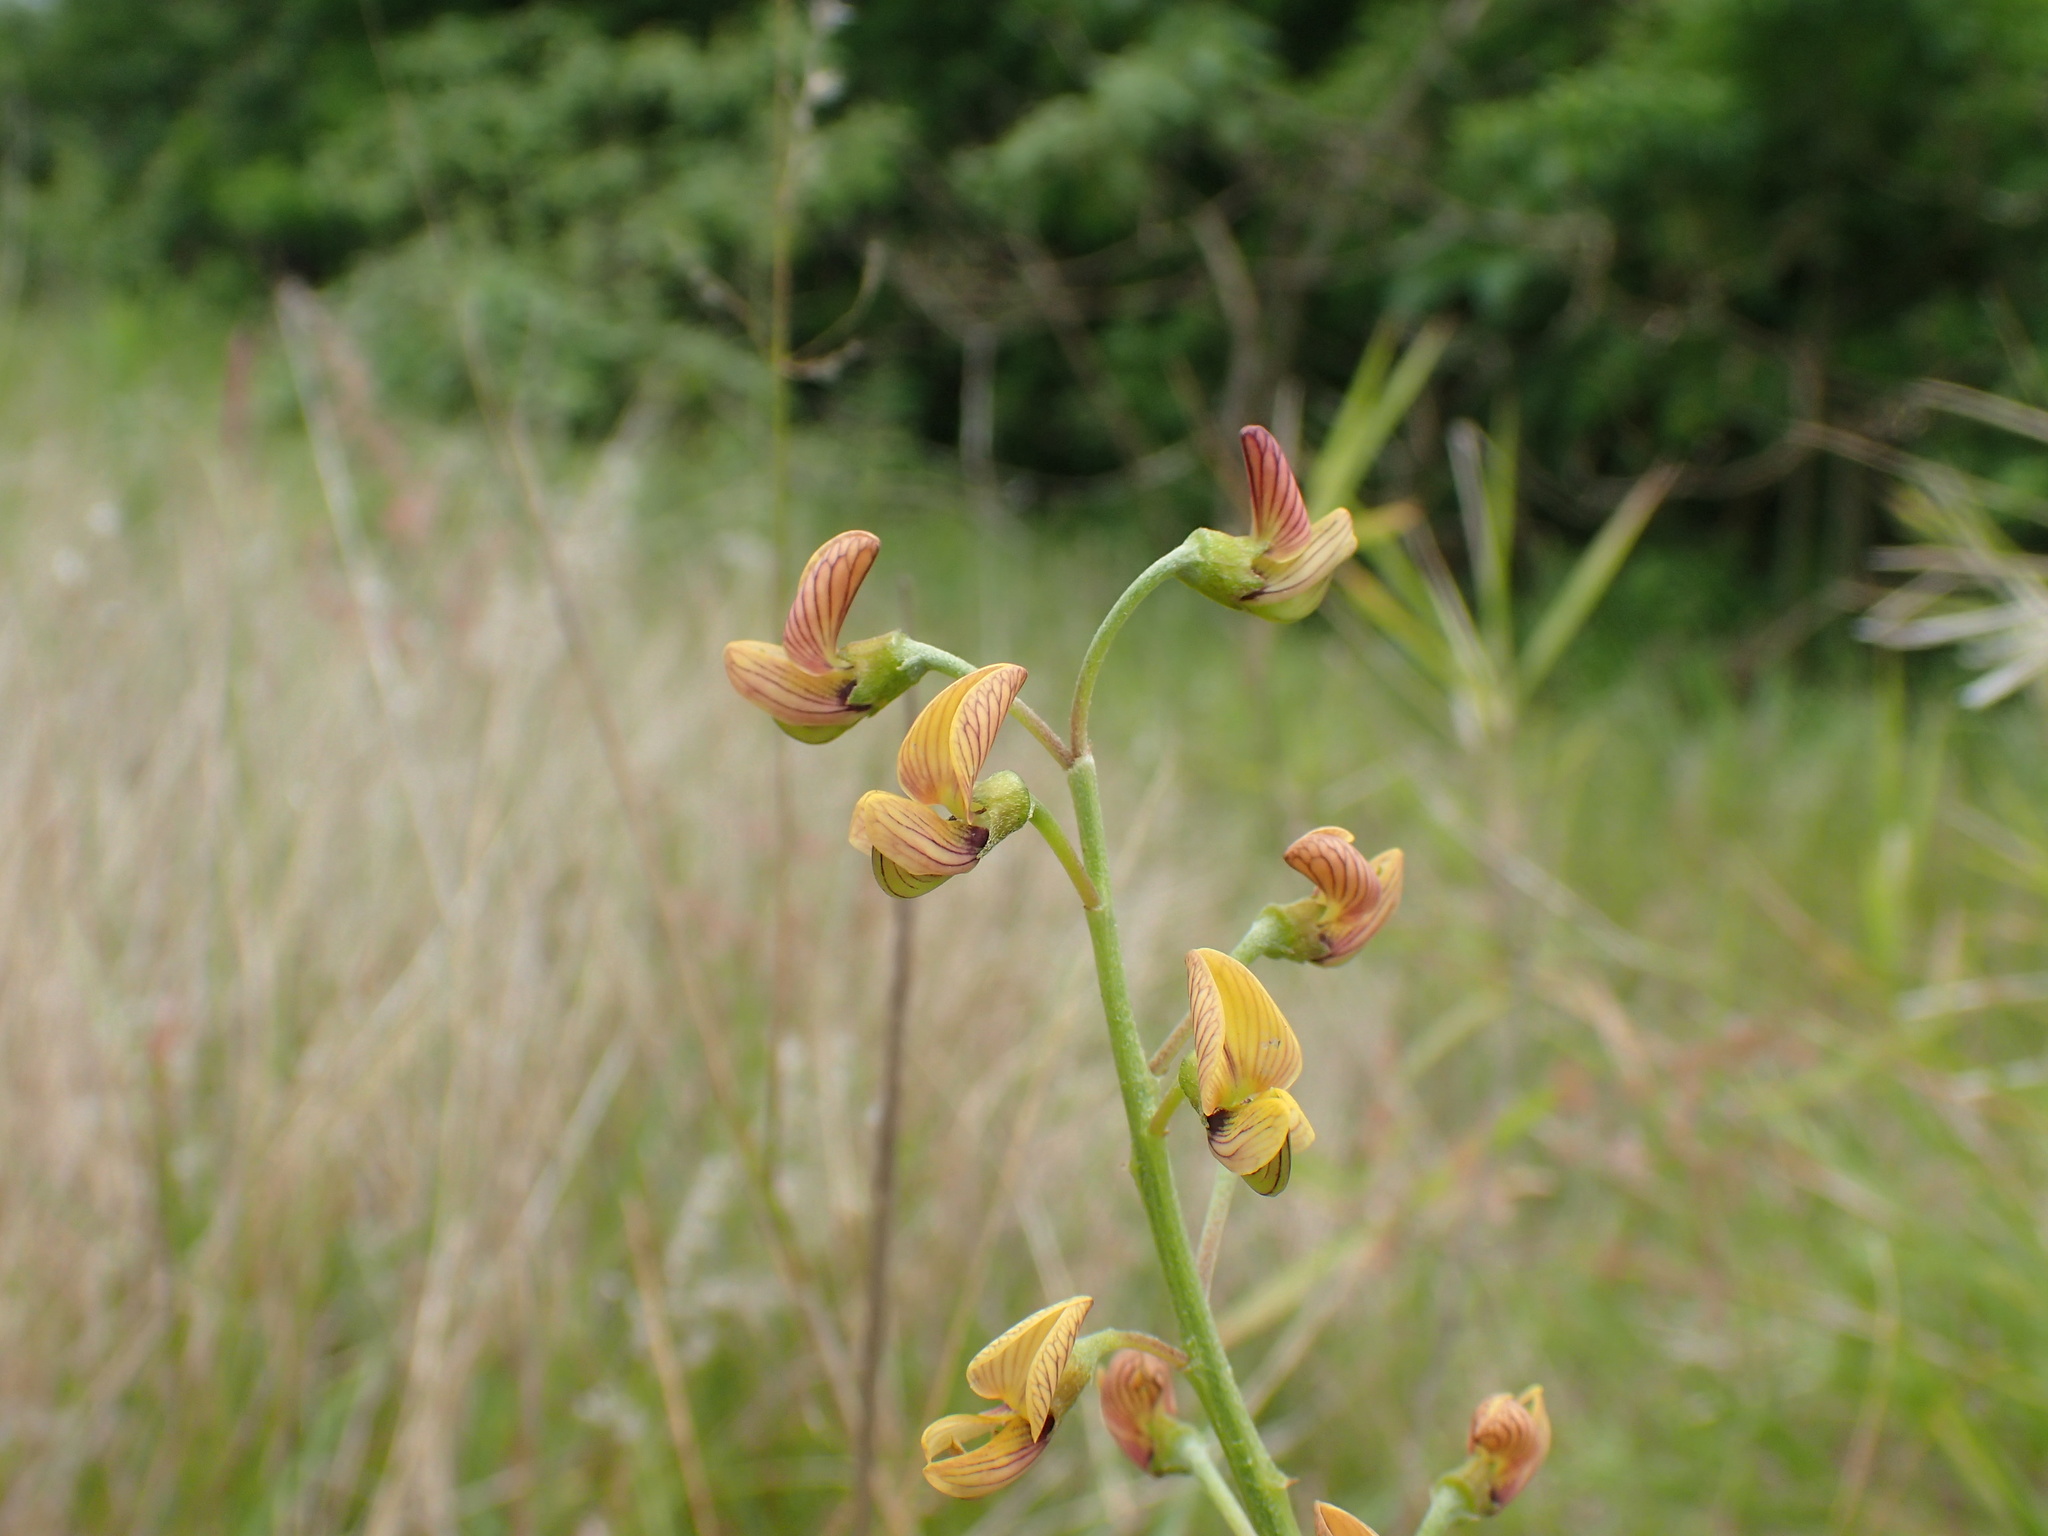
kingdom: Plantae
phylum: Tracheophyta
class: Magnoliopsida
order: Fabales
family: Fabaceae
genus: Crotalaria
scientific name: Crotalaria lanceolata
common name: Lanceleaf rattlebox
